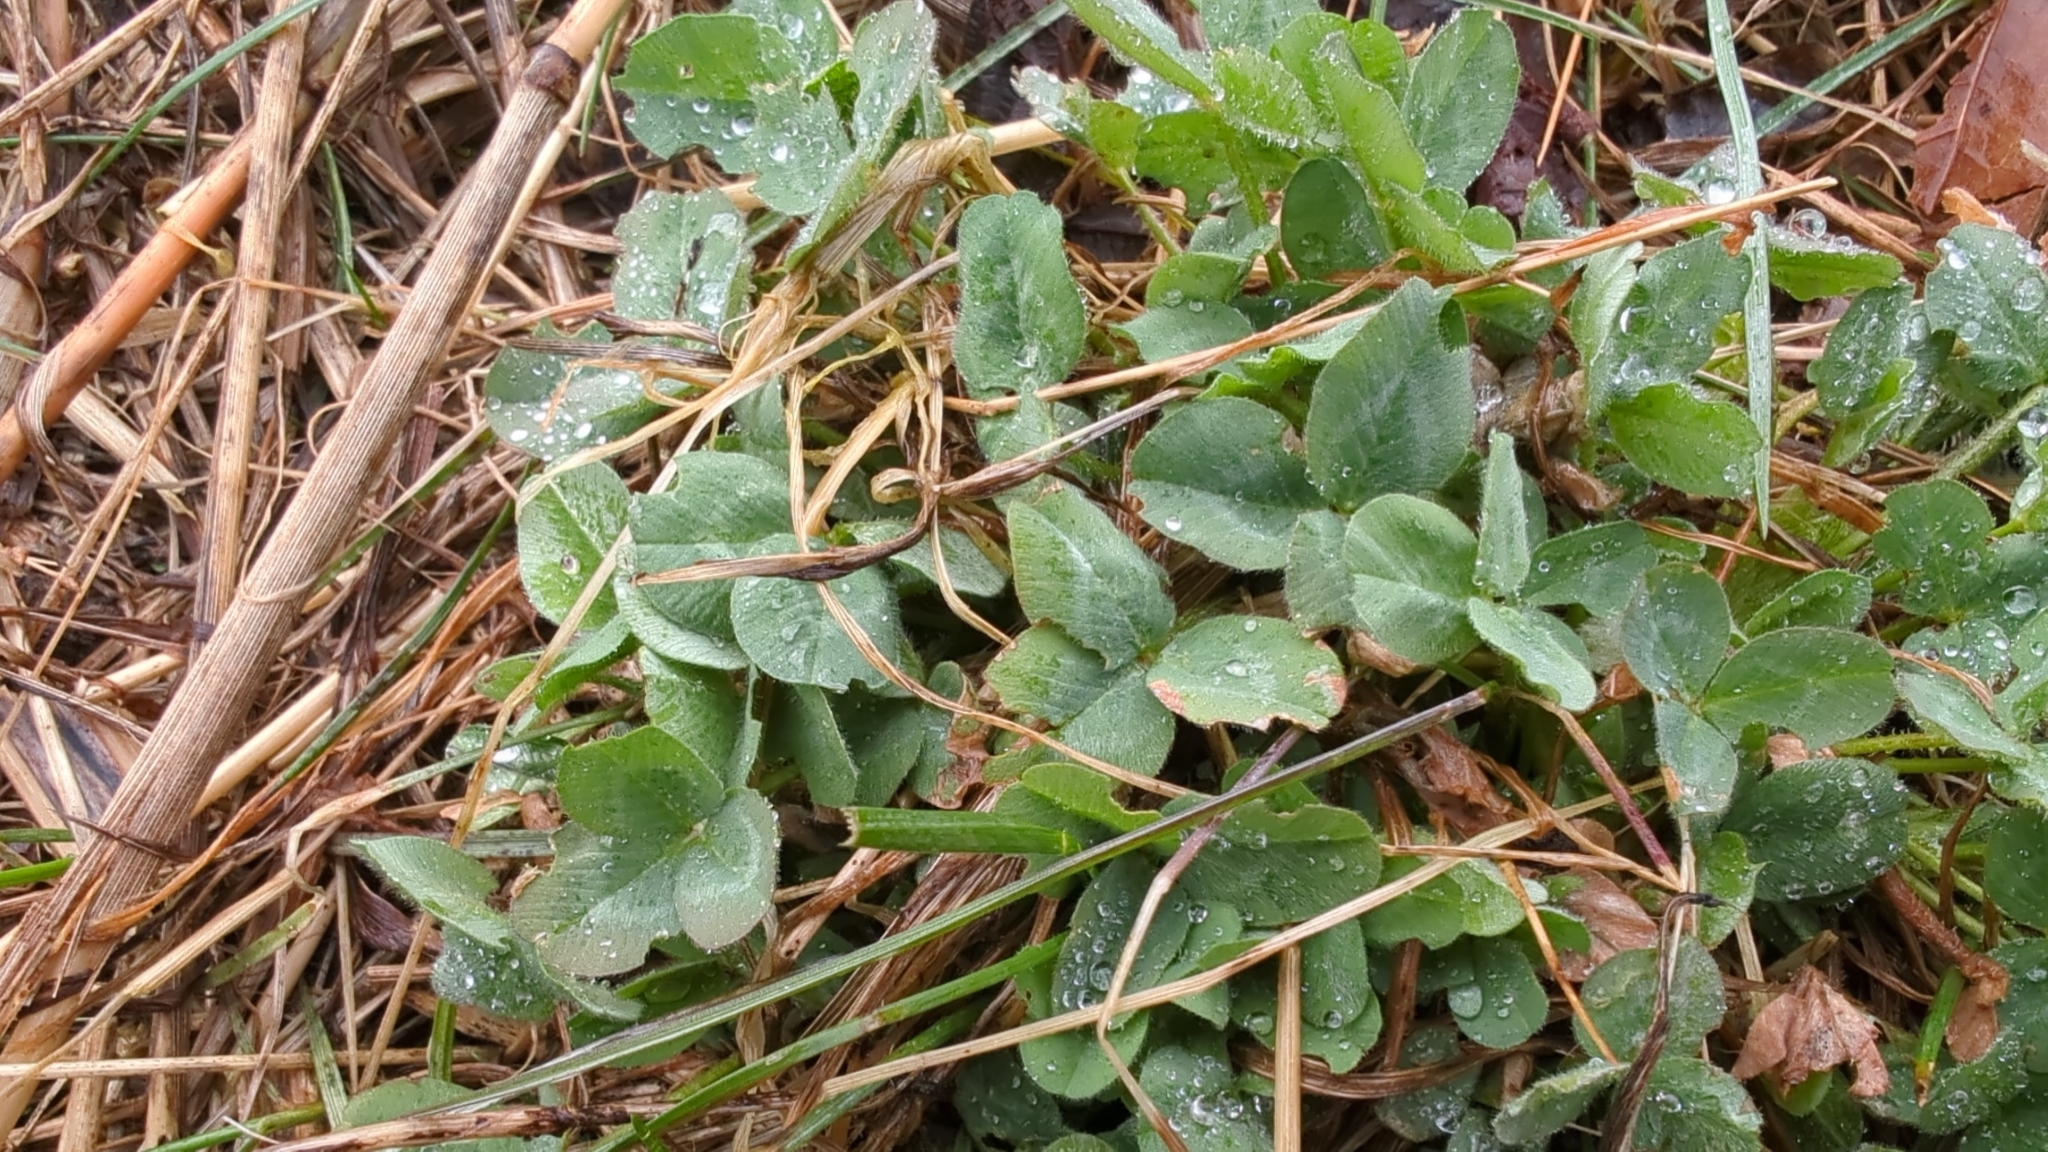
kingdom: Plantae
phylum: Tracheophyta
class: Magnoliopsida
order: Fabales
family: Fabaceae
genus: Trifolium
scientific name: Trifolium pratense
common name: Red clover
